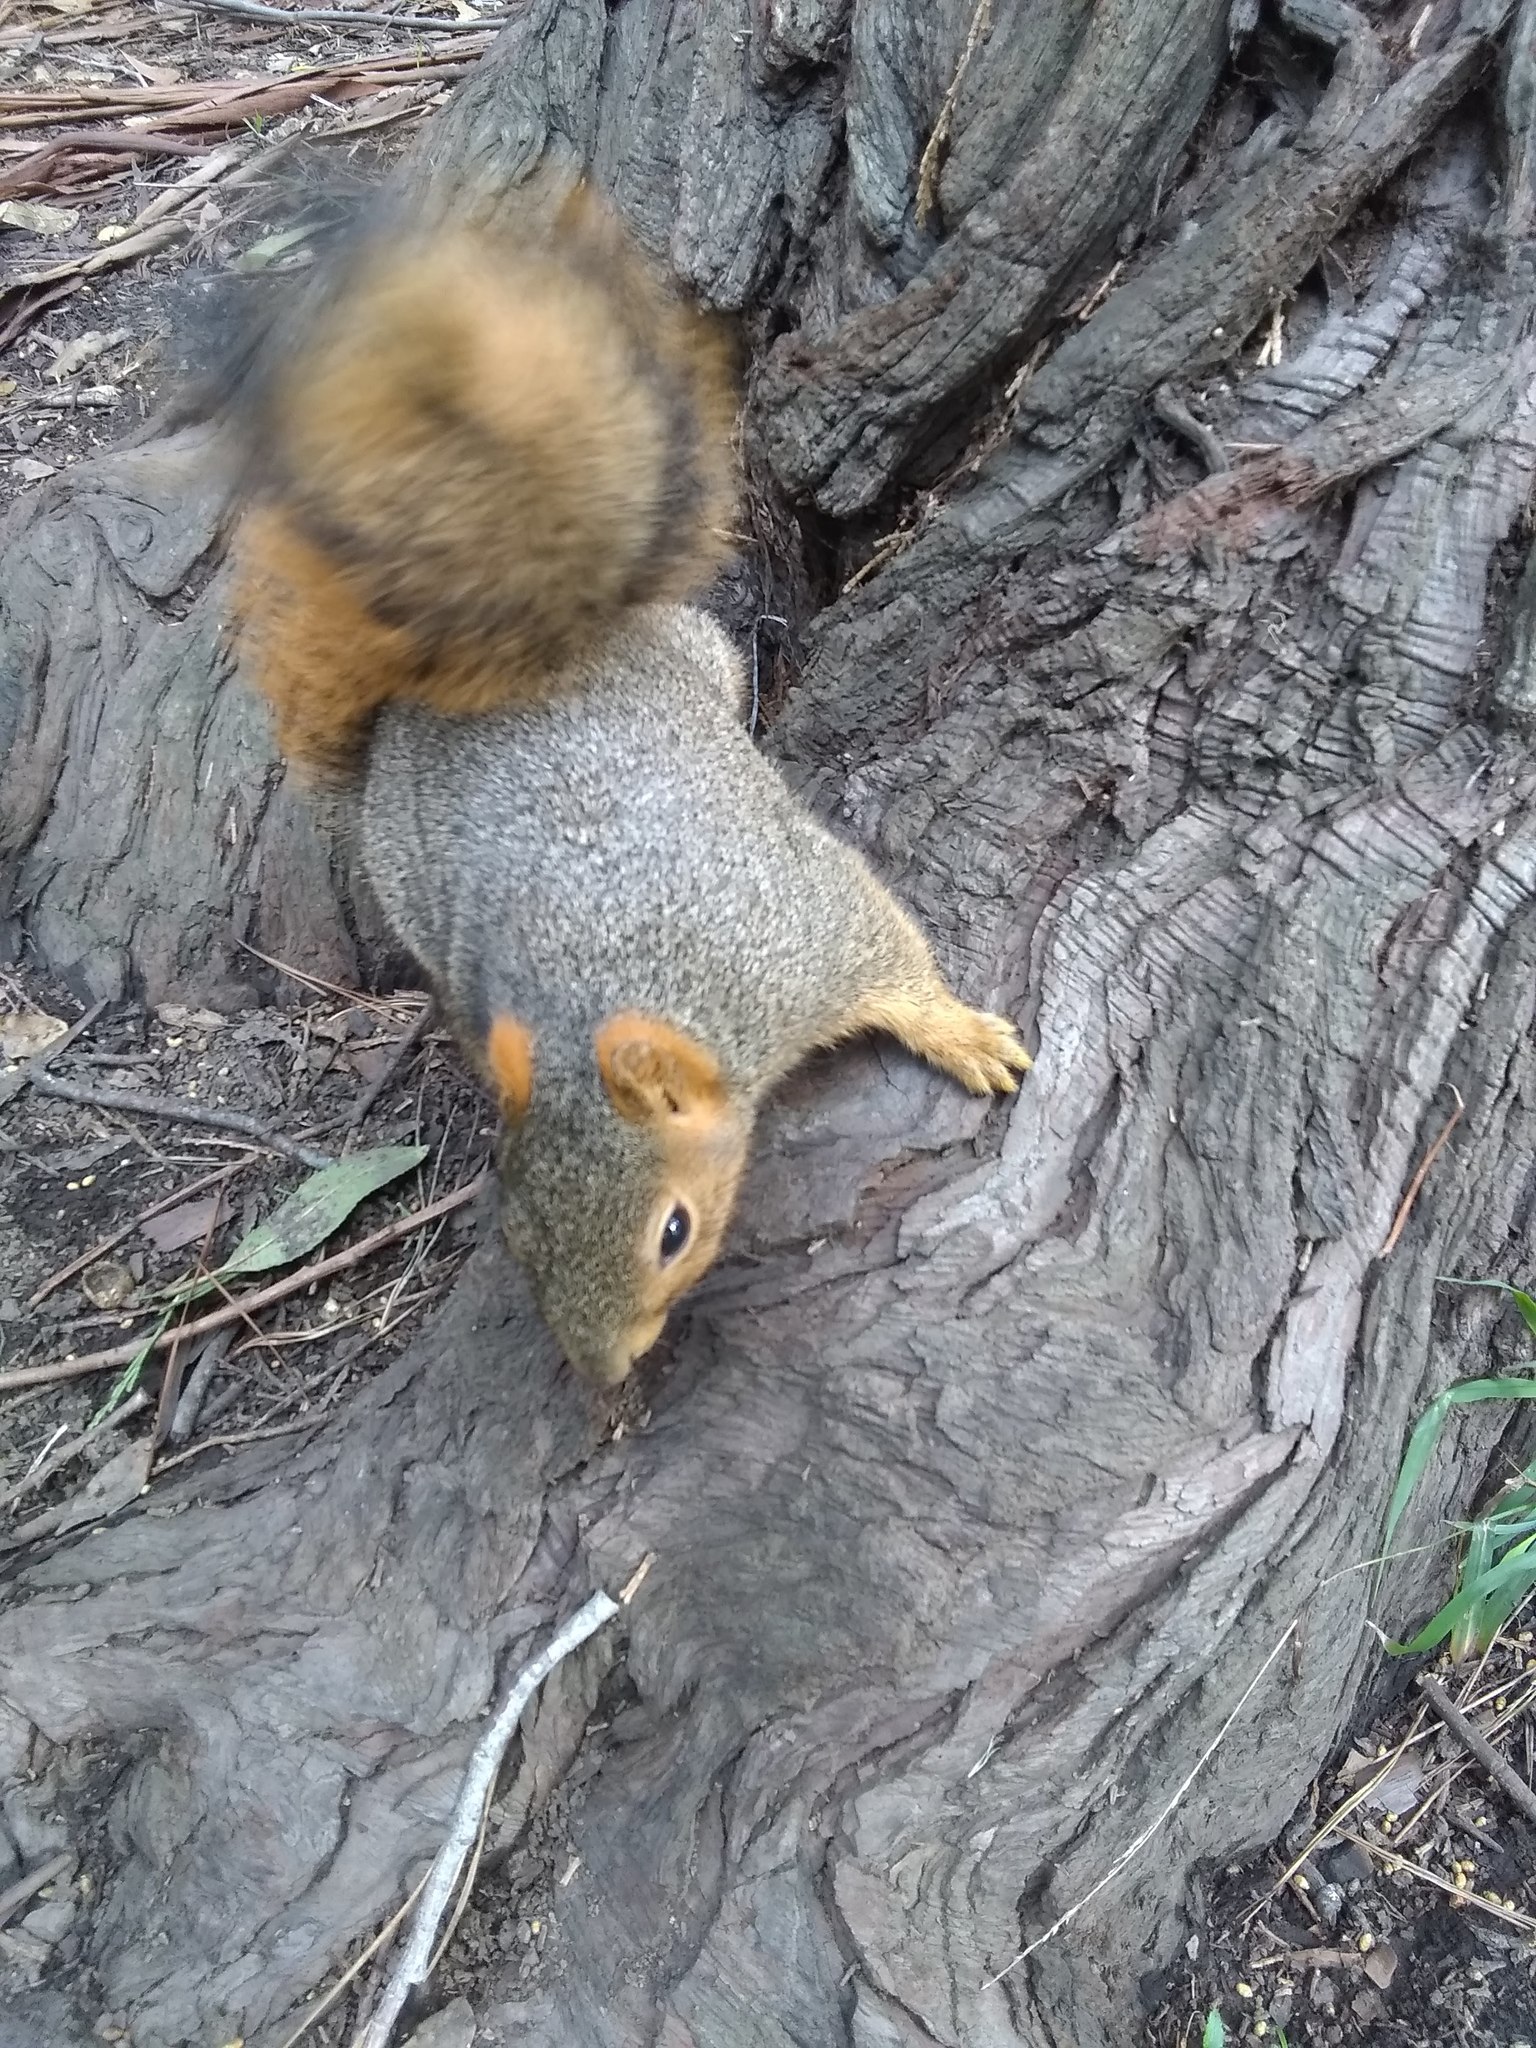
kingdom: Animalia
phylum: Chordata
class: Mammalia
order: Rodentia
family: Sciuridae
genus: Sciurus
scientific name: Sciurus niger
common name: Fox squirrel
